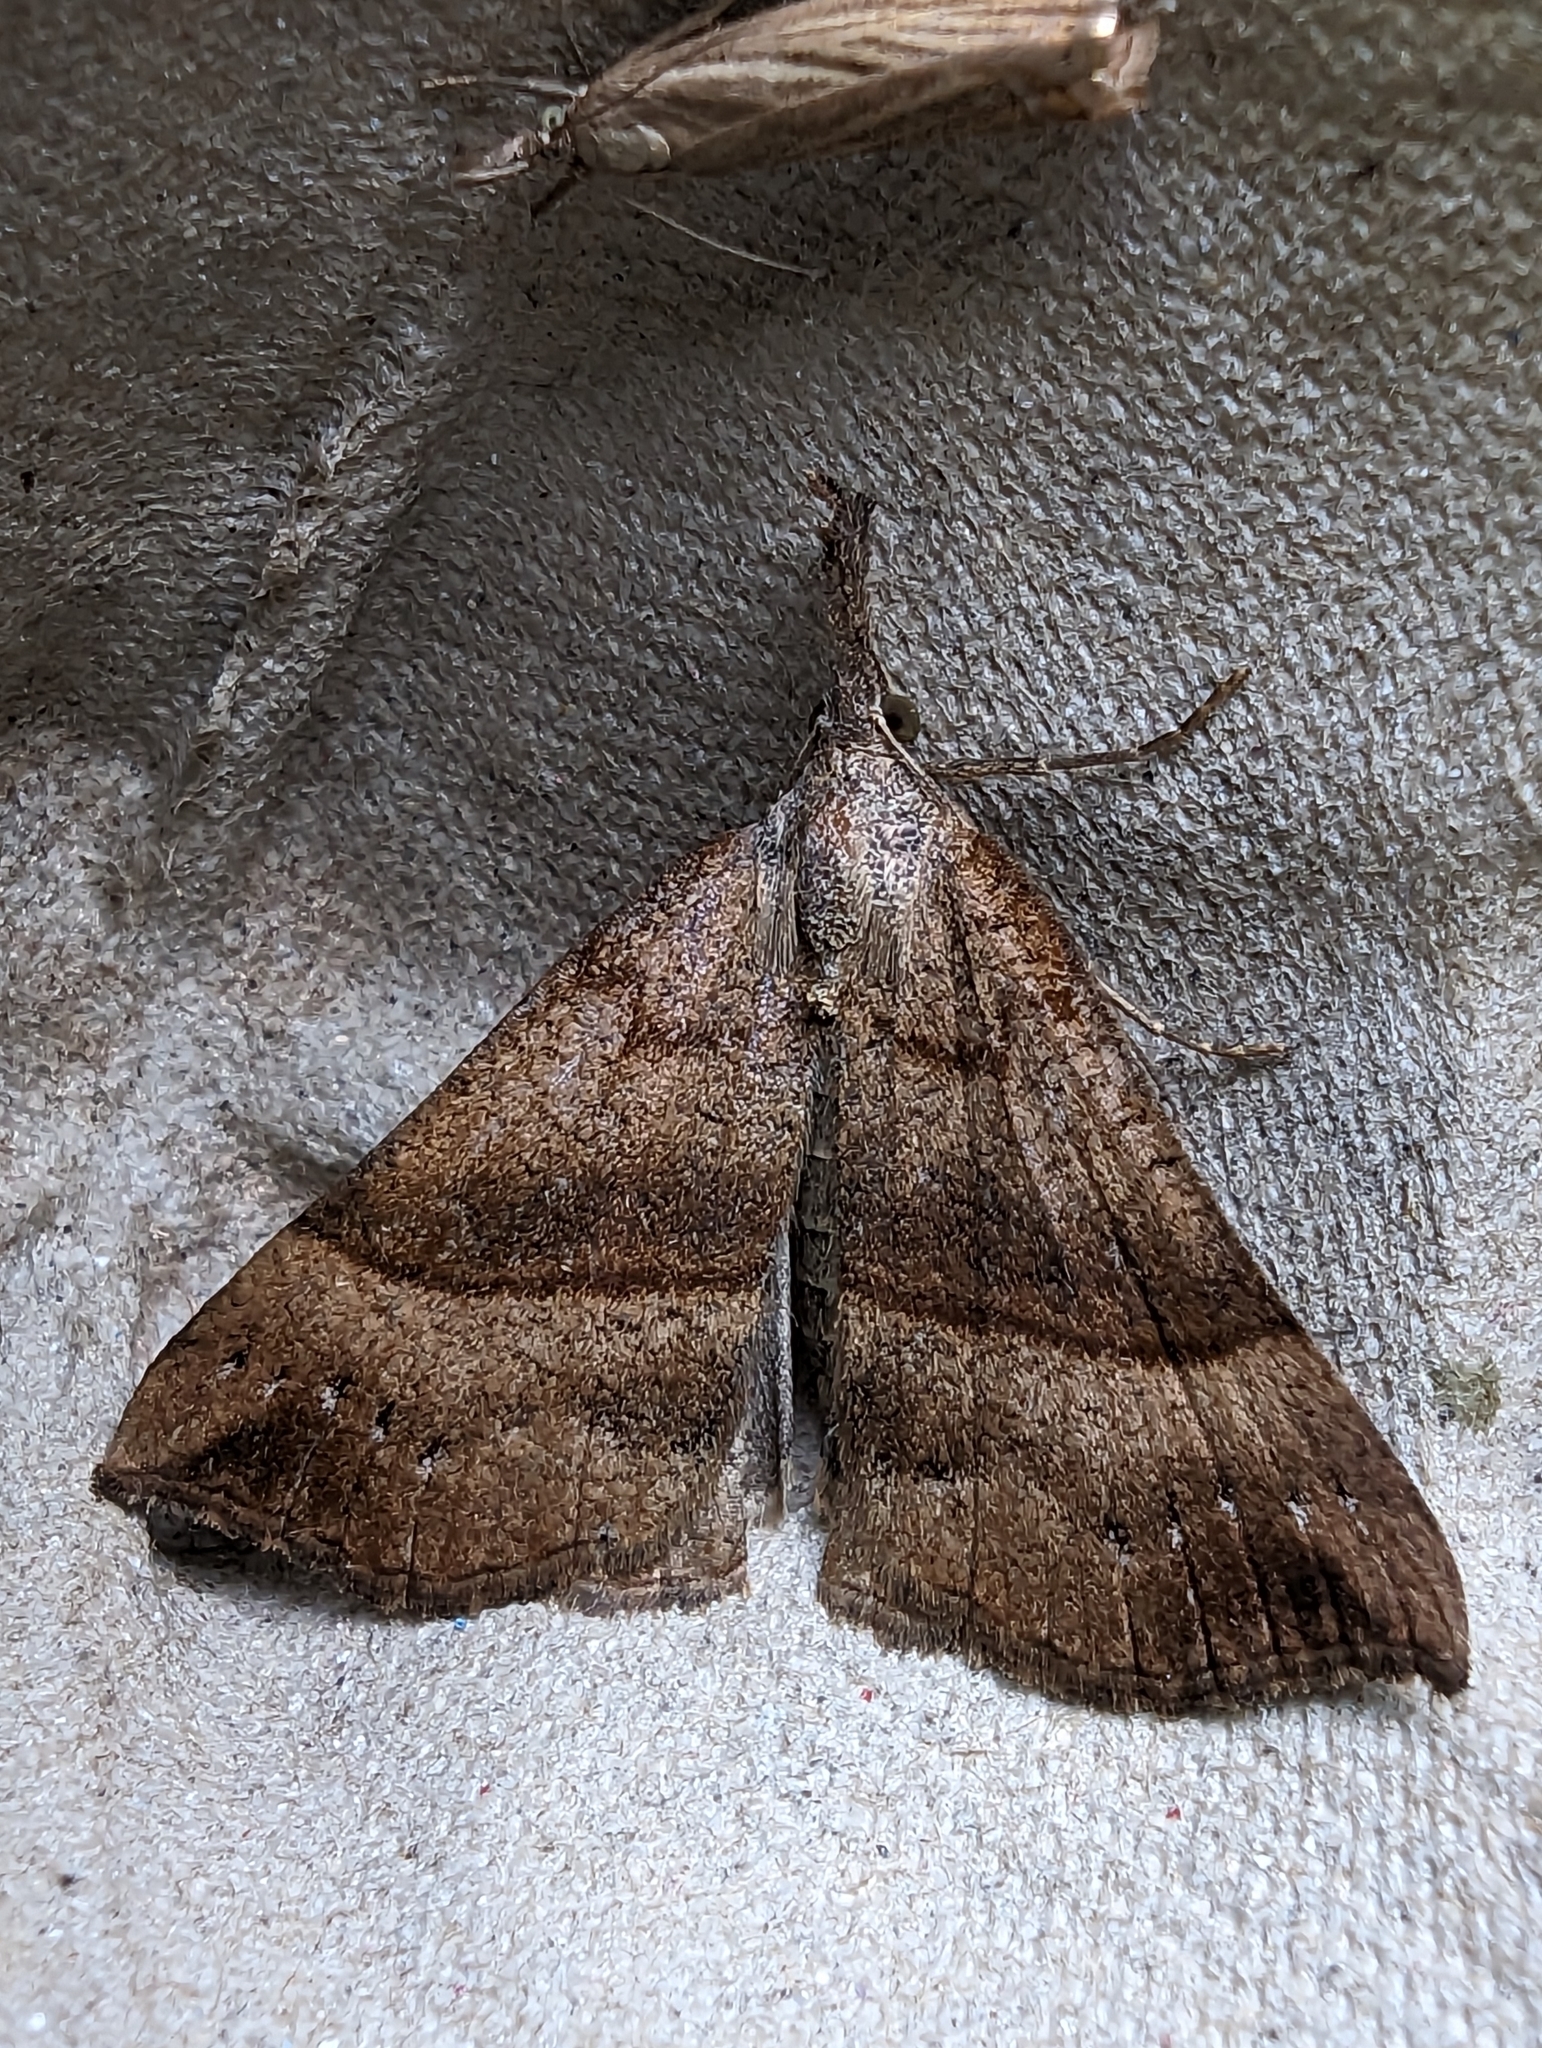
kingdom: Animalia
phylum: Arthropoda
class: Insecta
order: Lepidoptera
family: Erebidae
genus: Hypena
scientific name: Hypena proboscidalis
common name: Snout
